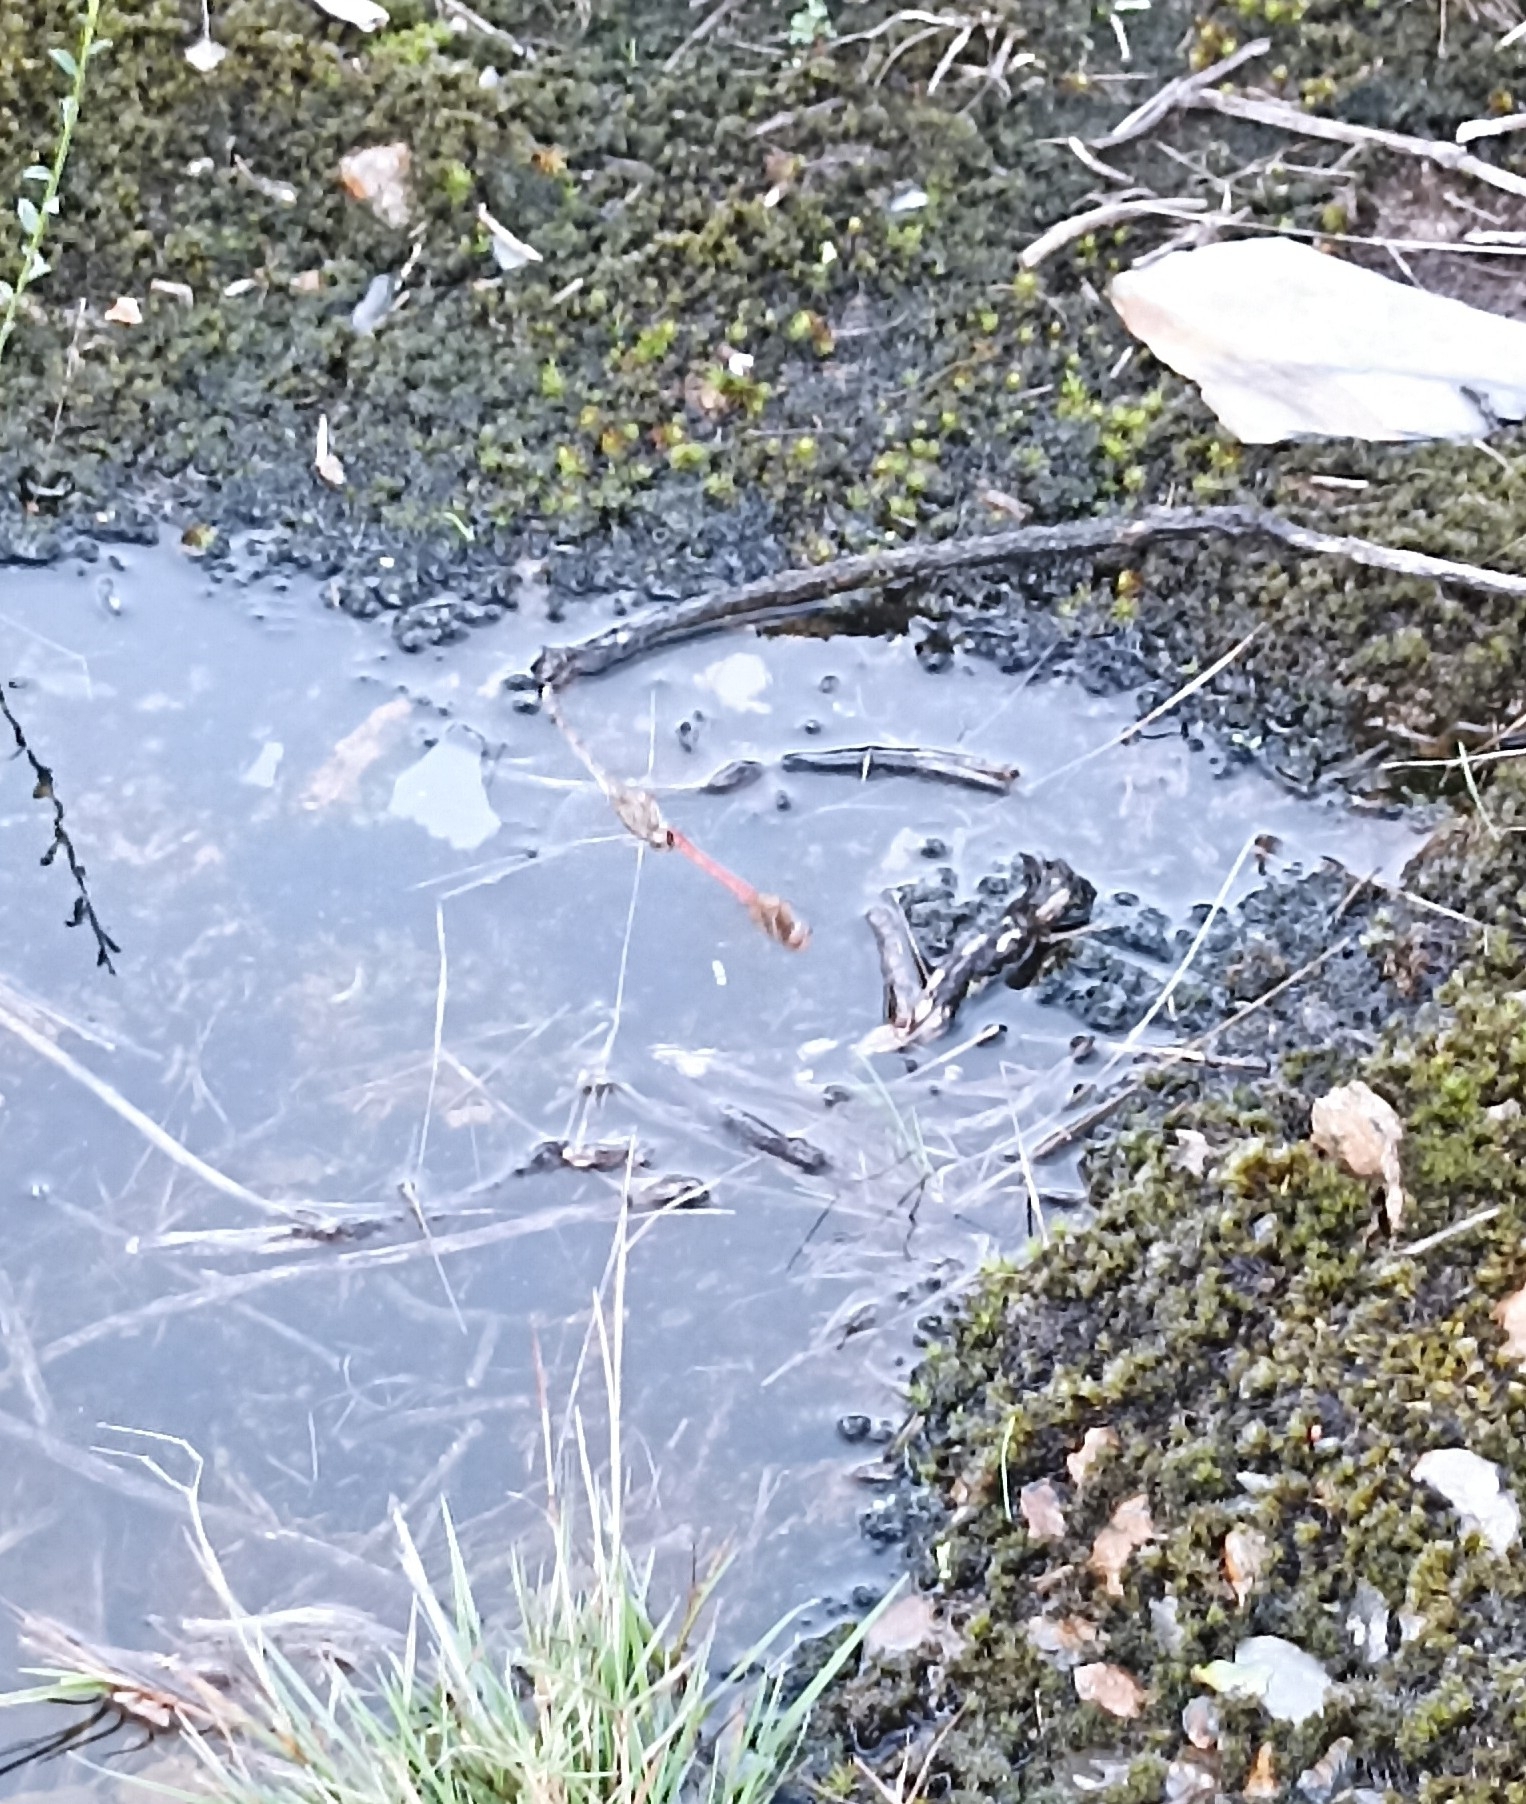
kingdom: Animalia
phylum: Arthropoda
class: Insecta
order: Odonata
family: Libellulidae
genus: Sympetrum
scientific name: Sympetrum striolatum
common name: Common darter
